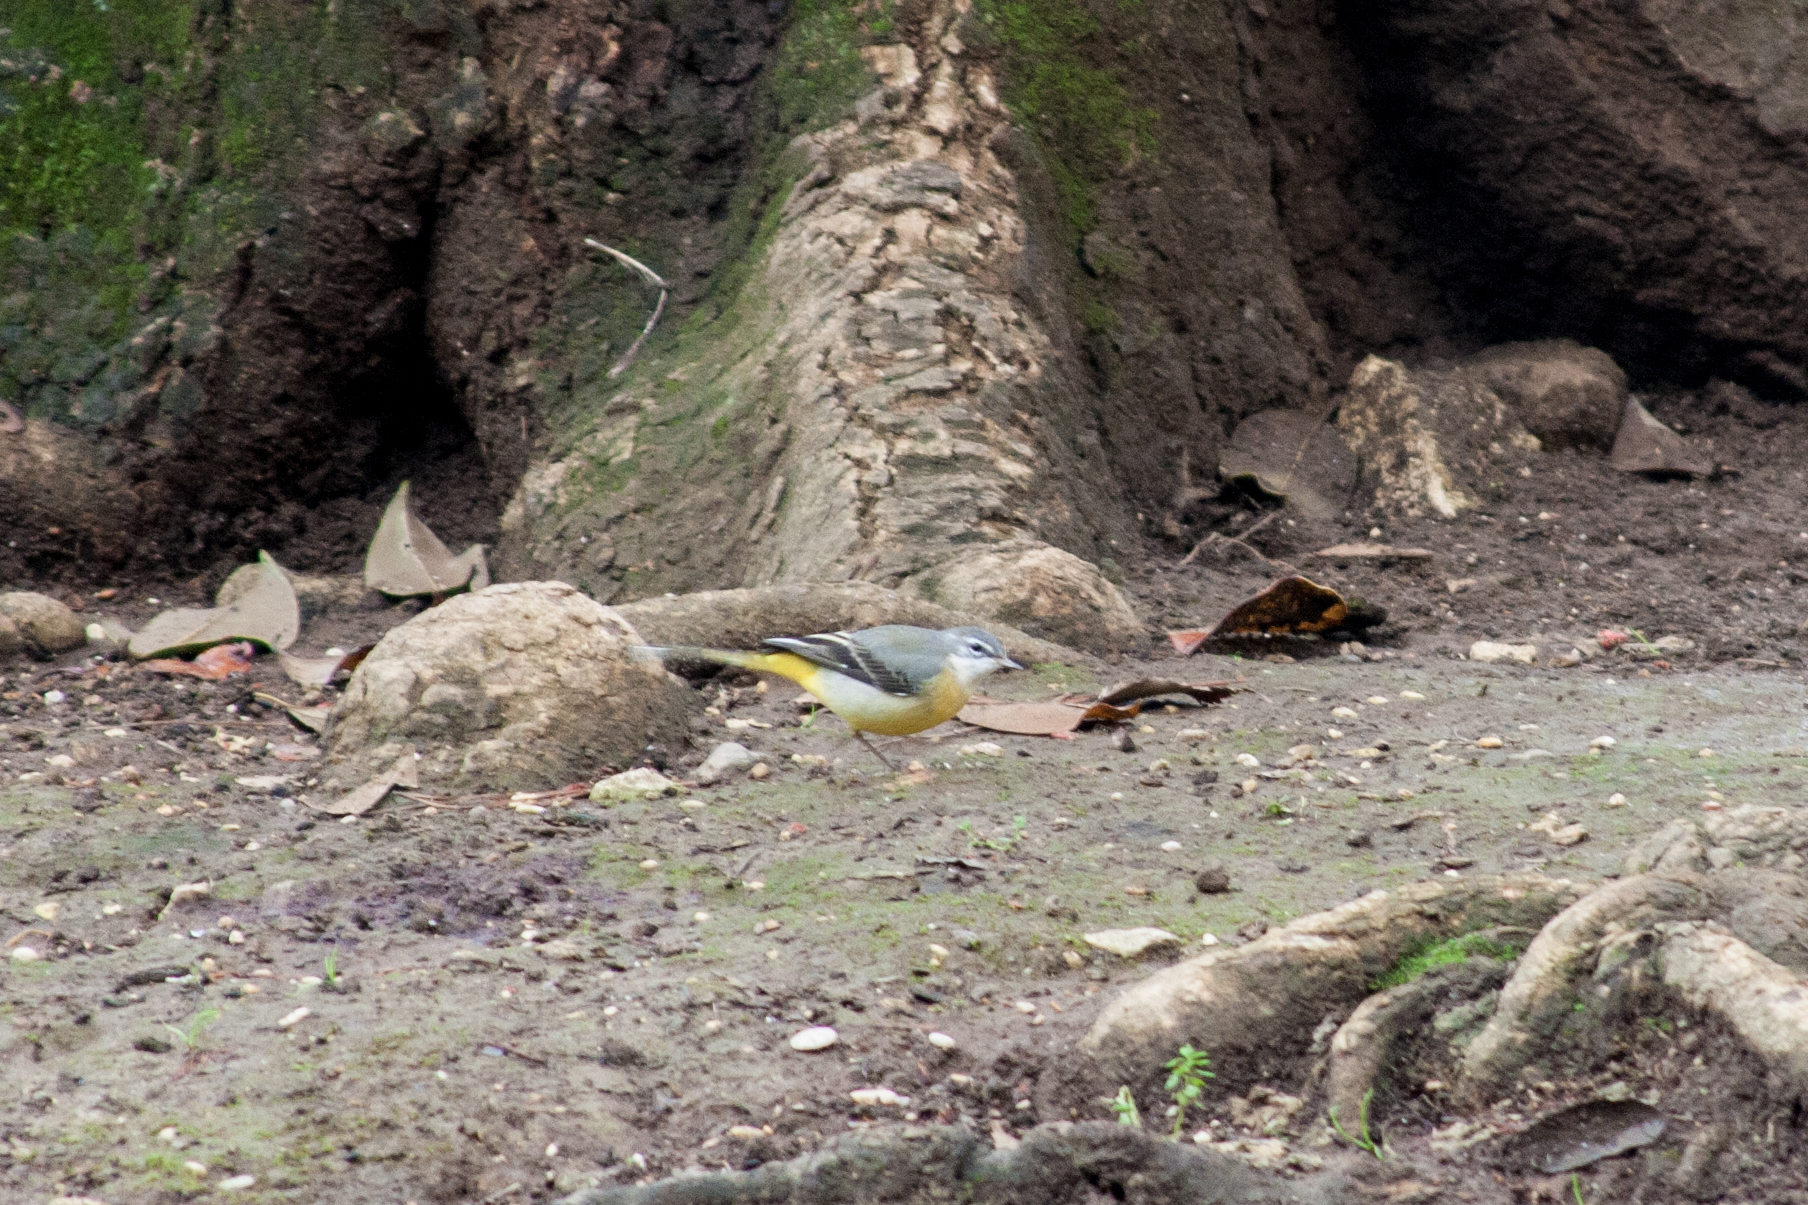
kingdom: Animalia
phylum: Chordata
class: Aves
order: Passeriformes
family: Motacillidae
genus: Motacilla
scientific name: Motacilla cinerea
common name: Grey wagtail
